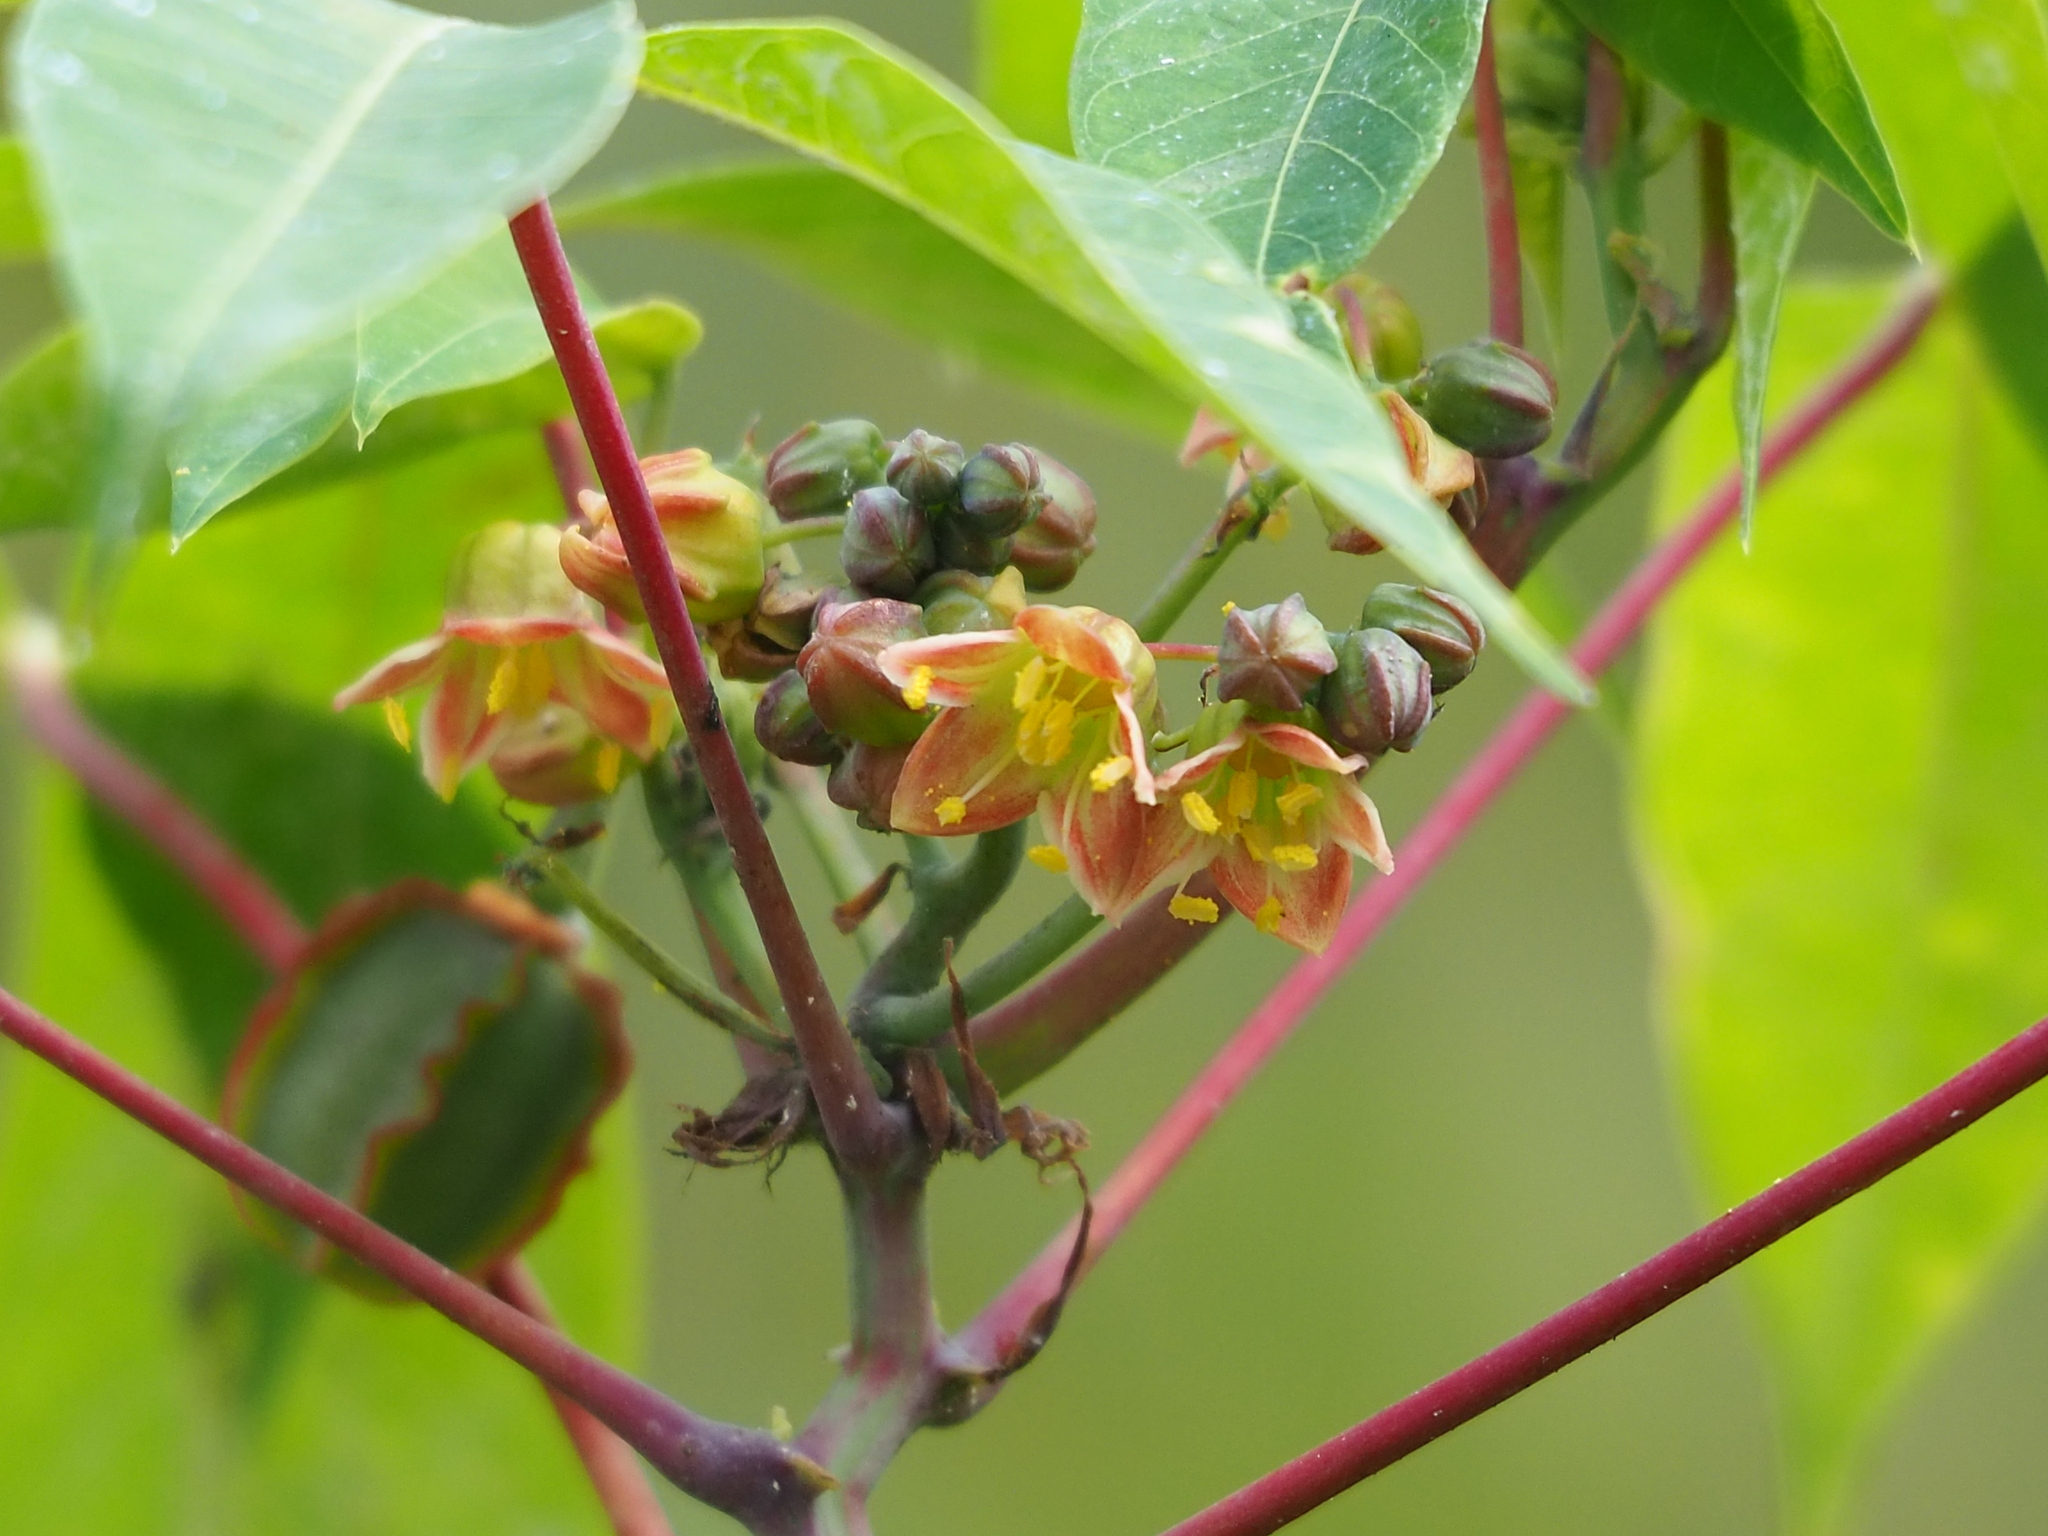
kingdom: Plantae
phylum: Tracheophyta
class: Magnoliopsida
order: Malpighiales
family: Euphorbiaceae
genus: Manihot
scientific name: Manihot esculenta
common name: Cassava
